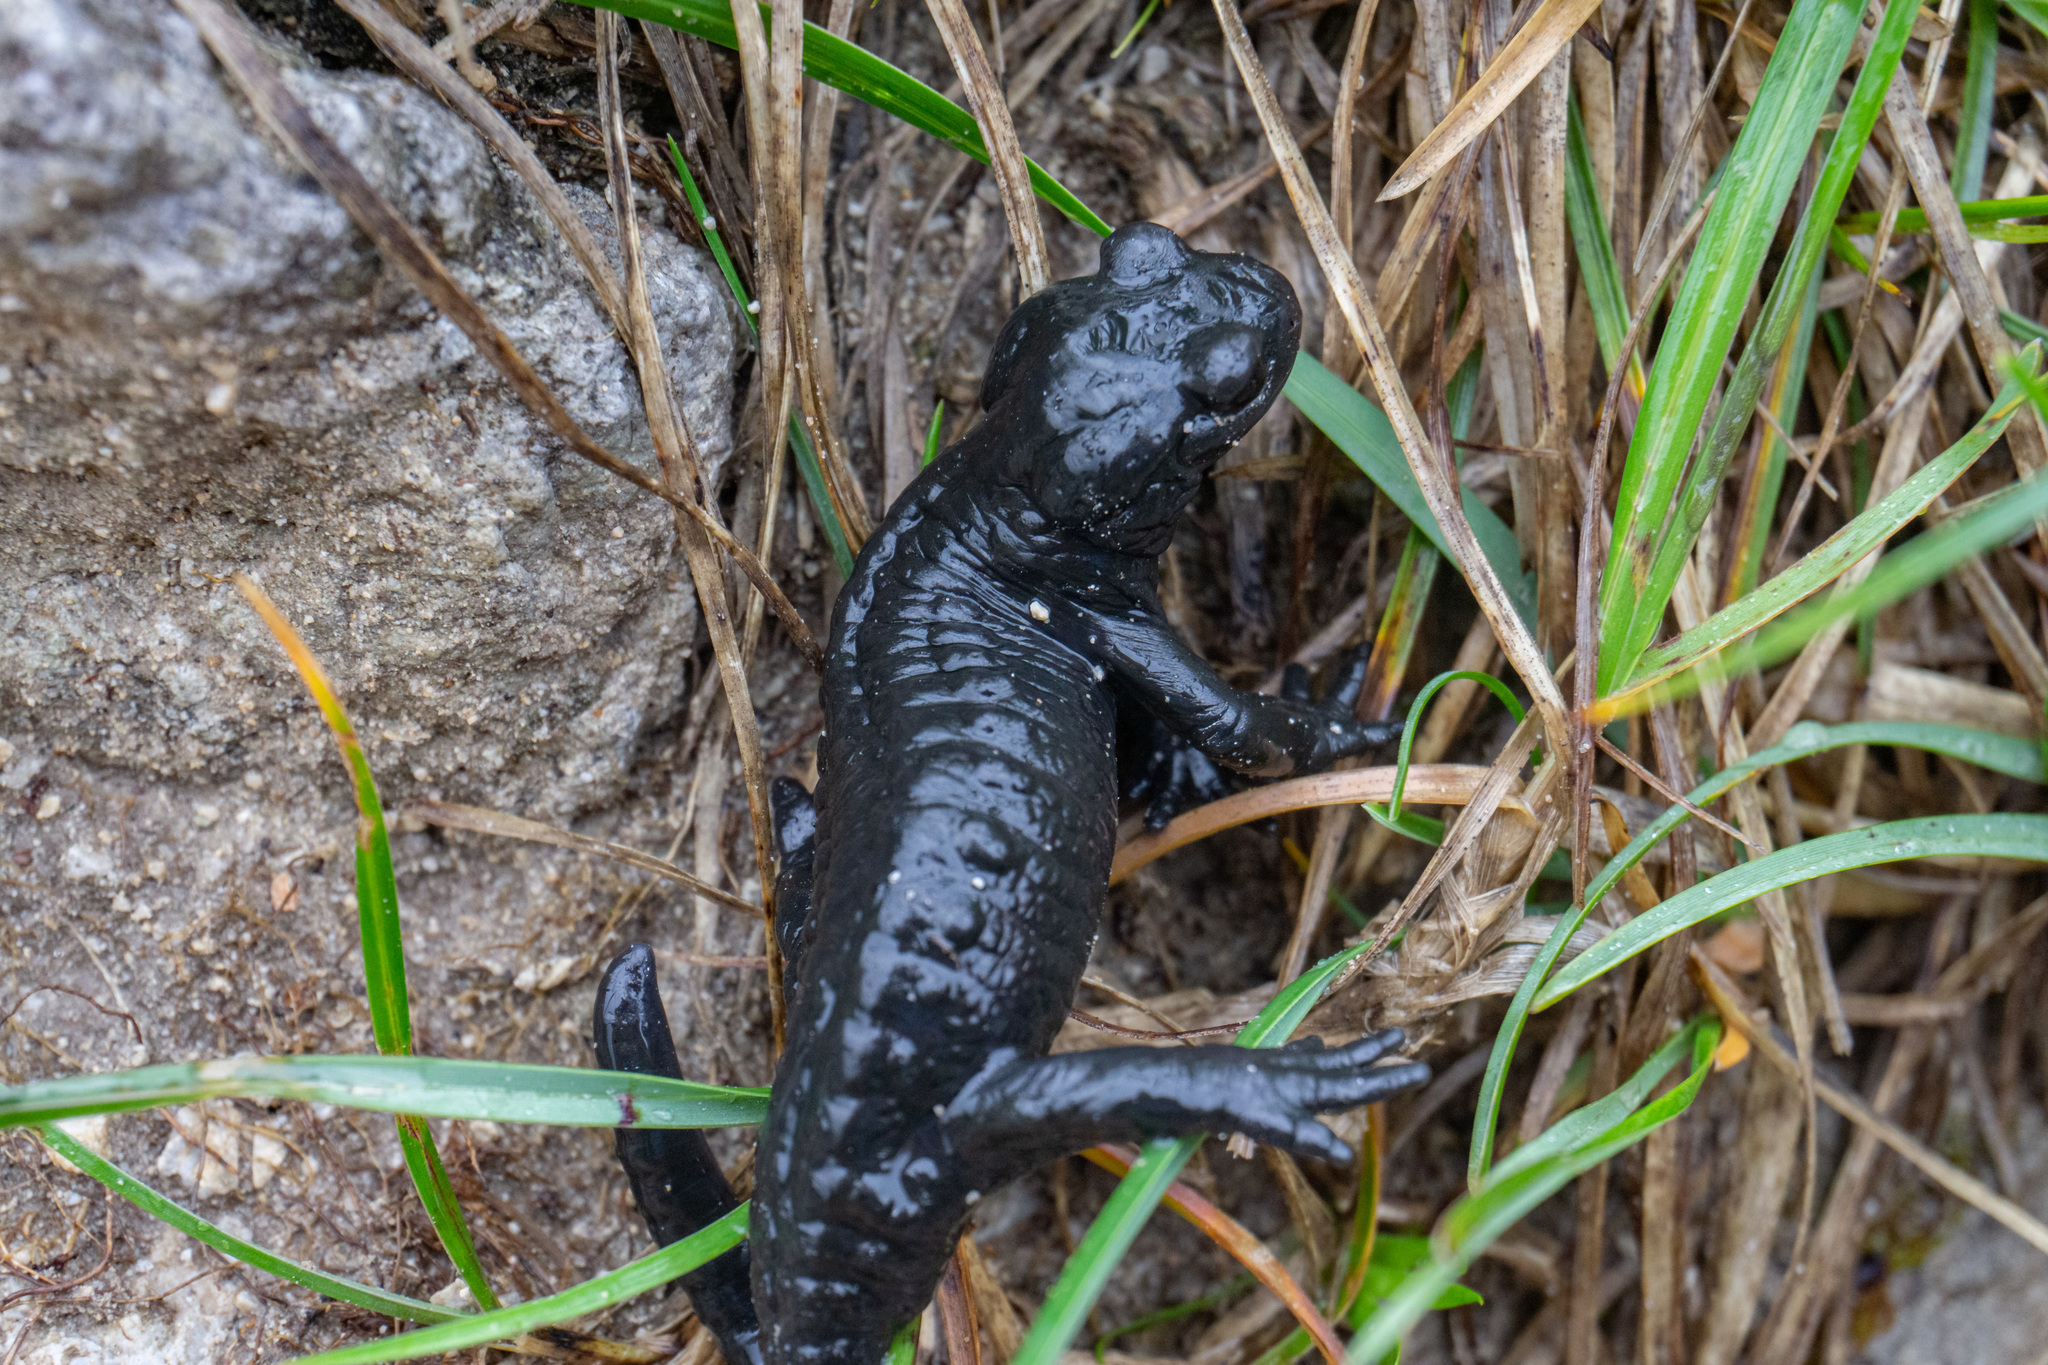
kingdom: Animalia
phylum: Chordata
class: Amphibia
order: Caudata
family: Salamandridae
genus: Salamandra
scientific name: Salamandra atra
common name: Alpine salamander
